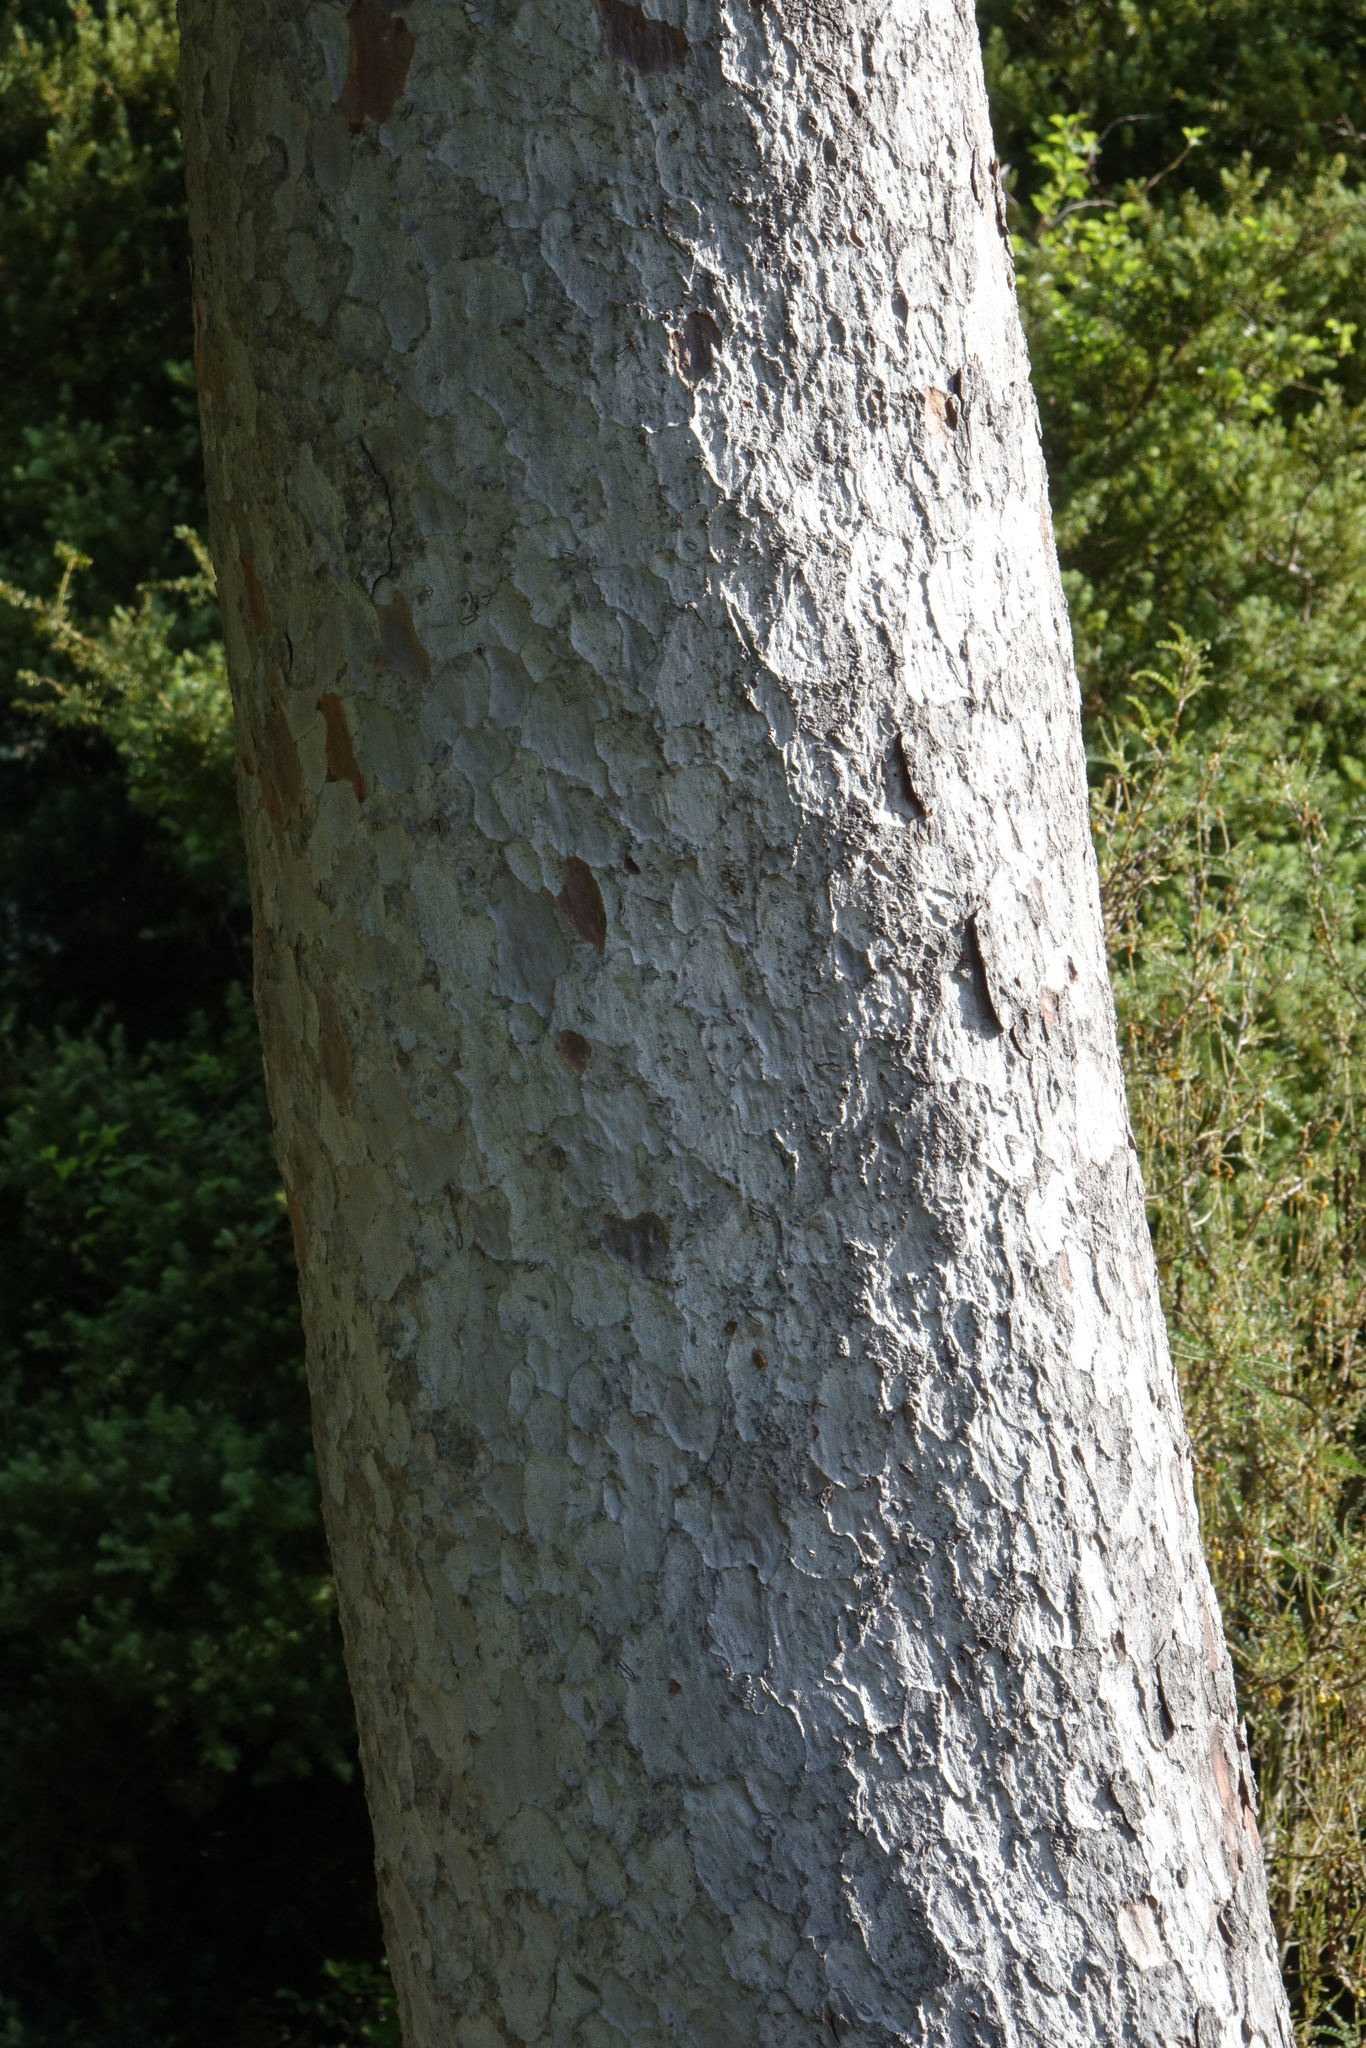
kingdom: Plantae
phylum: Tracheophyta
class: Pinopsida
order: Pinales
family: Podocarpaceae
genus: Prumnopitys
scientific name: Prumnopitys taxifolia
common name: Matai
